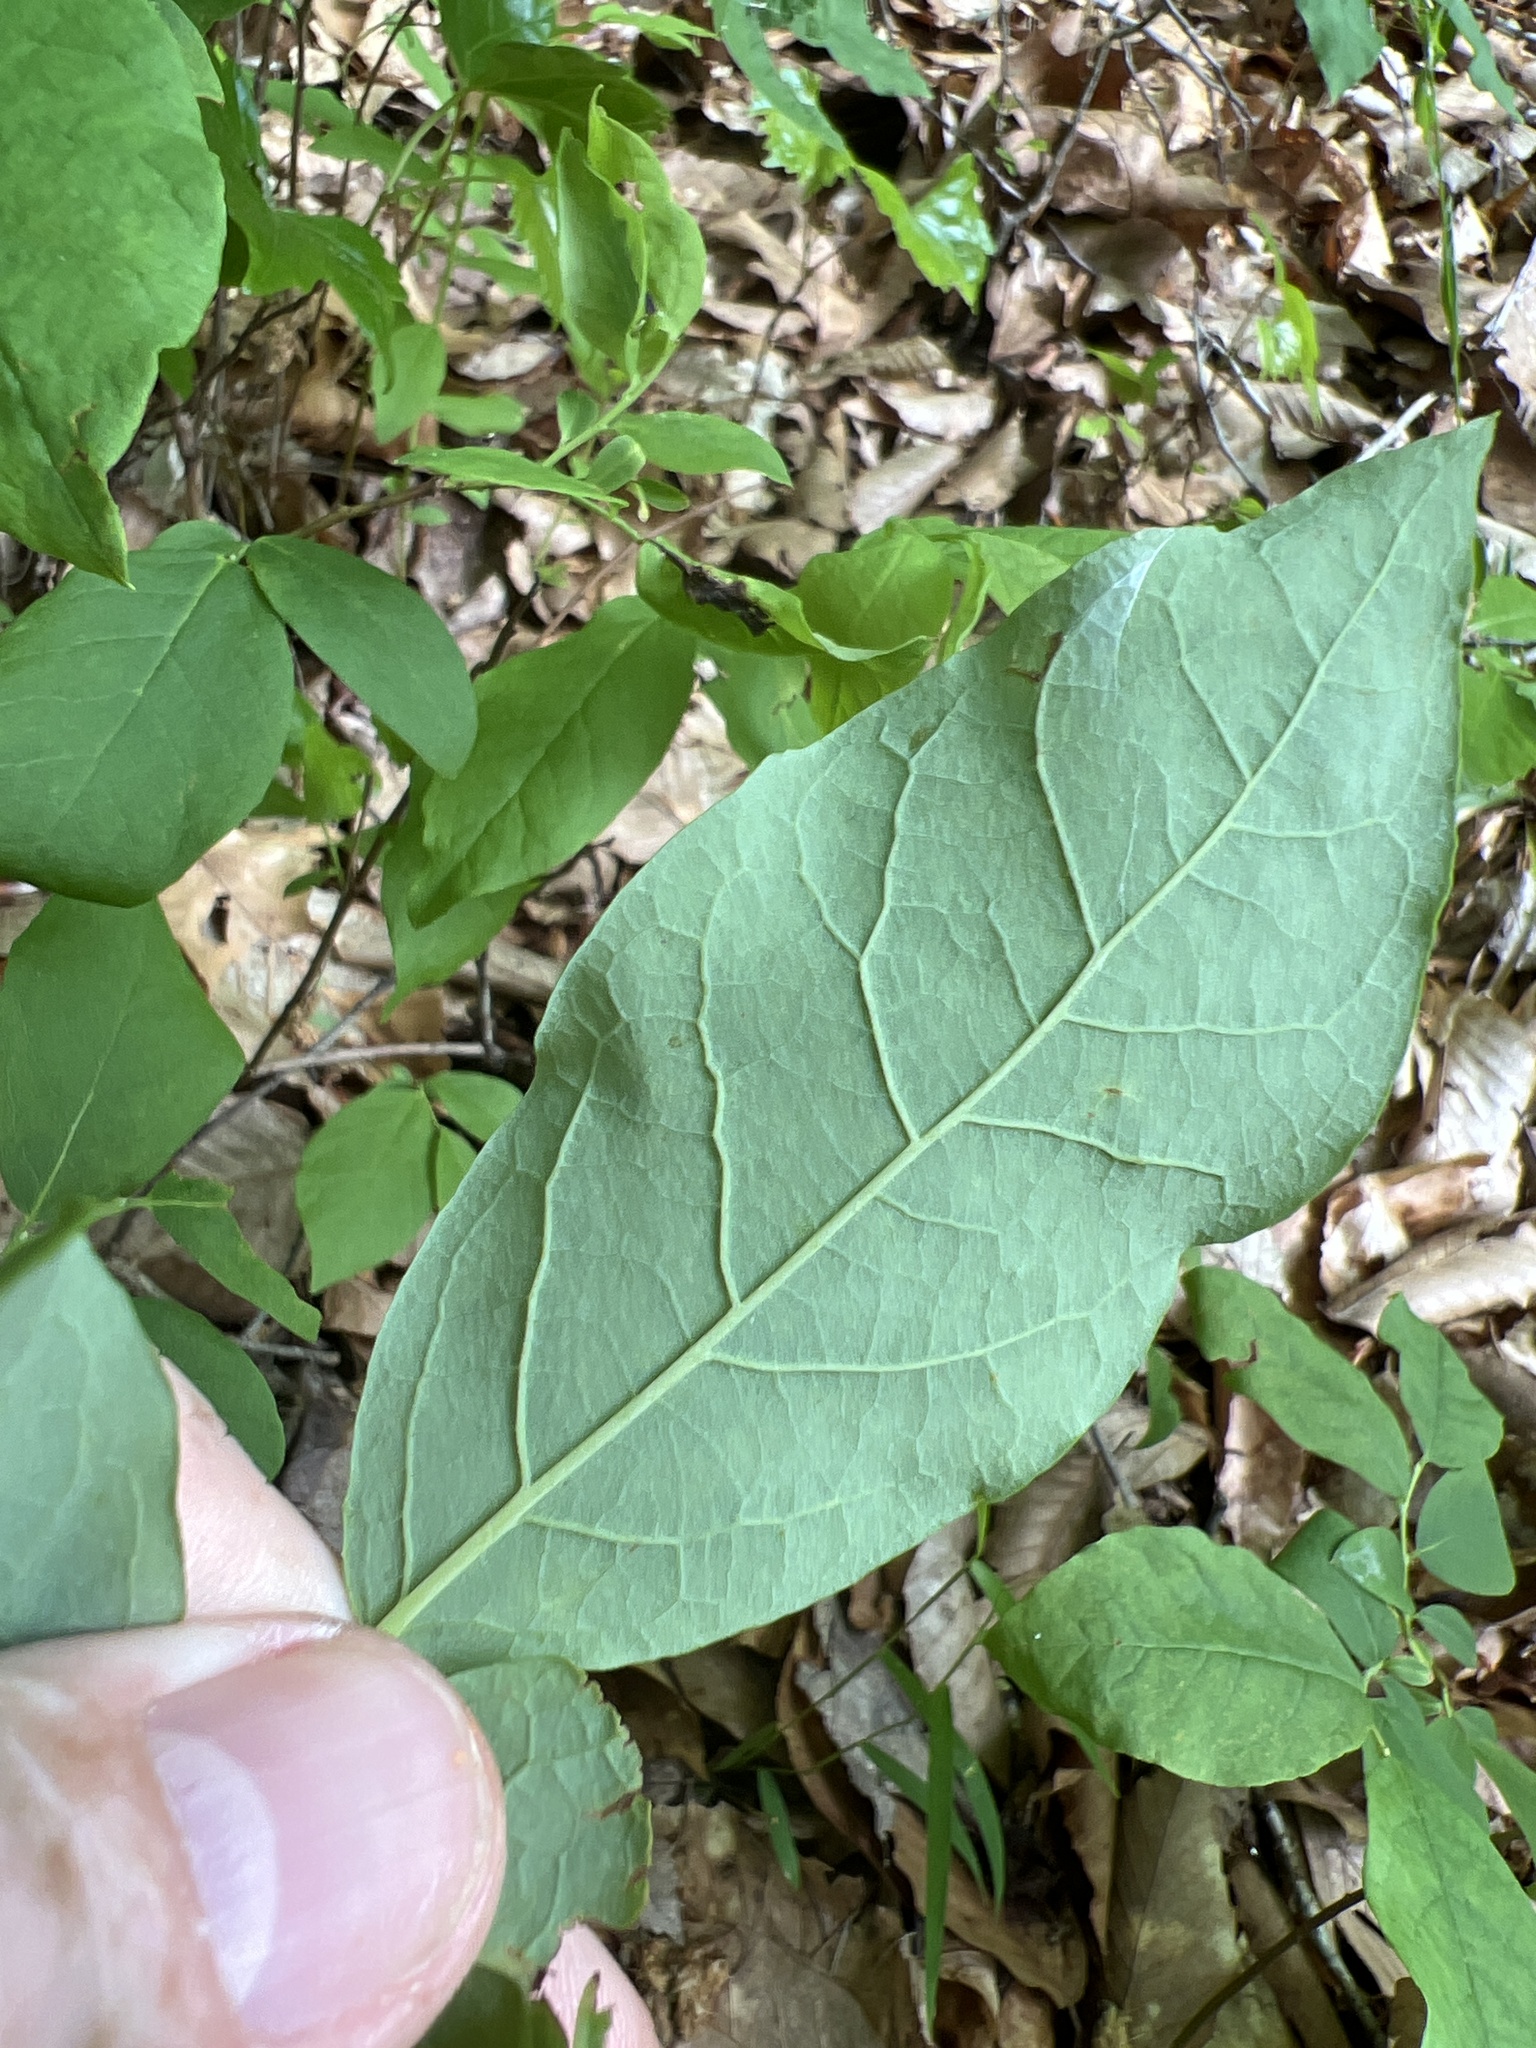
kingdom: Plantae
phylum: Tracheophyta
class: Magnoliopsida
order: Ericales
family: Ericaceae
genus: Vaccinium
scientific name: Vaccinium stamineum
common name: Deerberry
